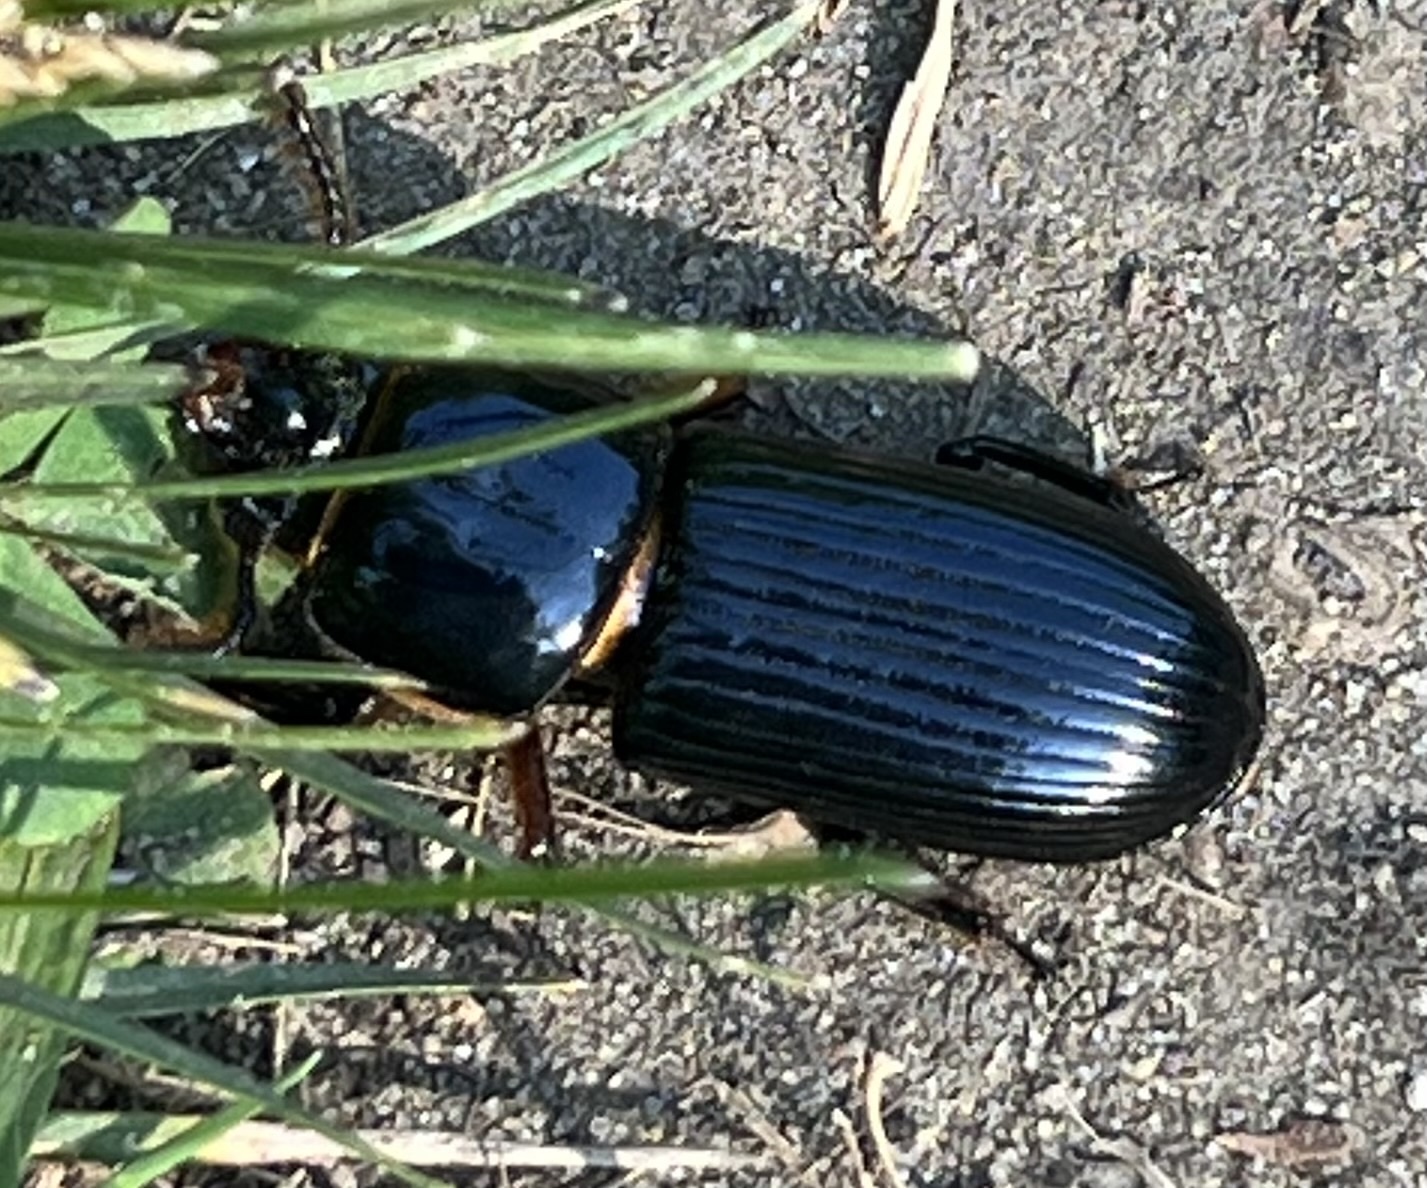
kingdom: Animalia
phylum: Arthropoda
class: Insecta
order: Coleoptera
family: Passalidae
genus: Odontotaenius
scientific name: Odontotaenius disjunctus
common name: Patent leather beetle
